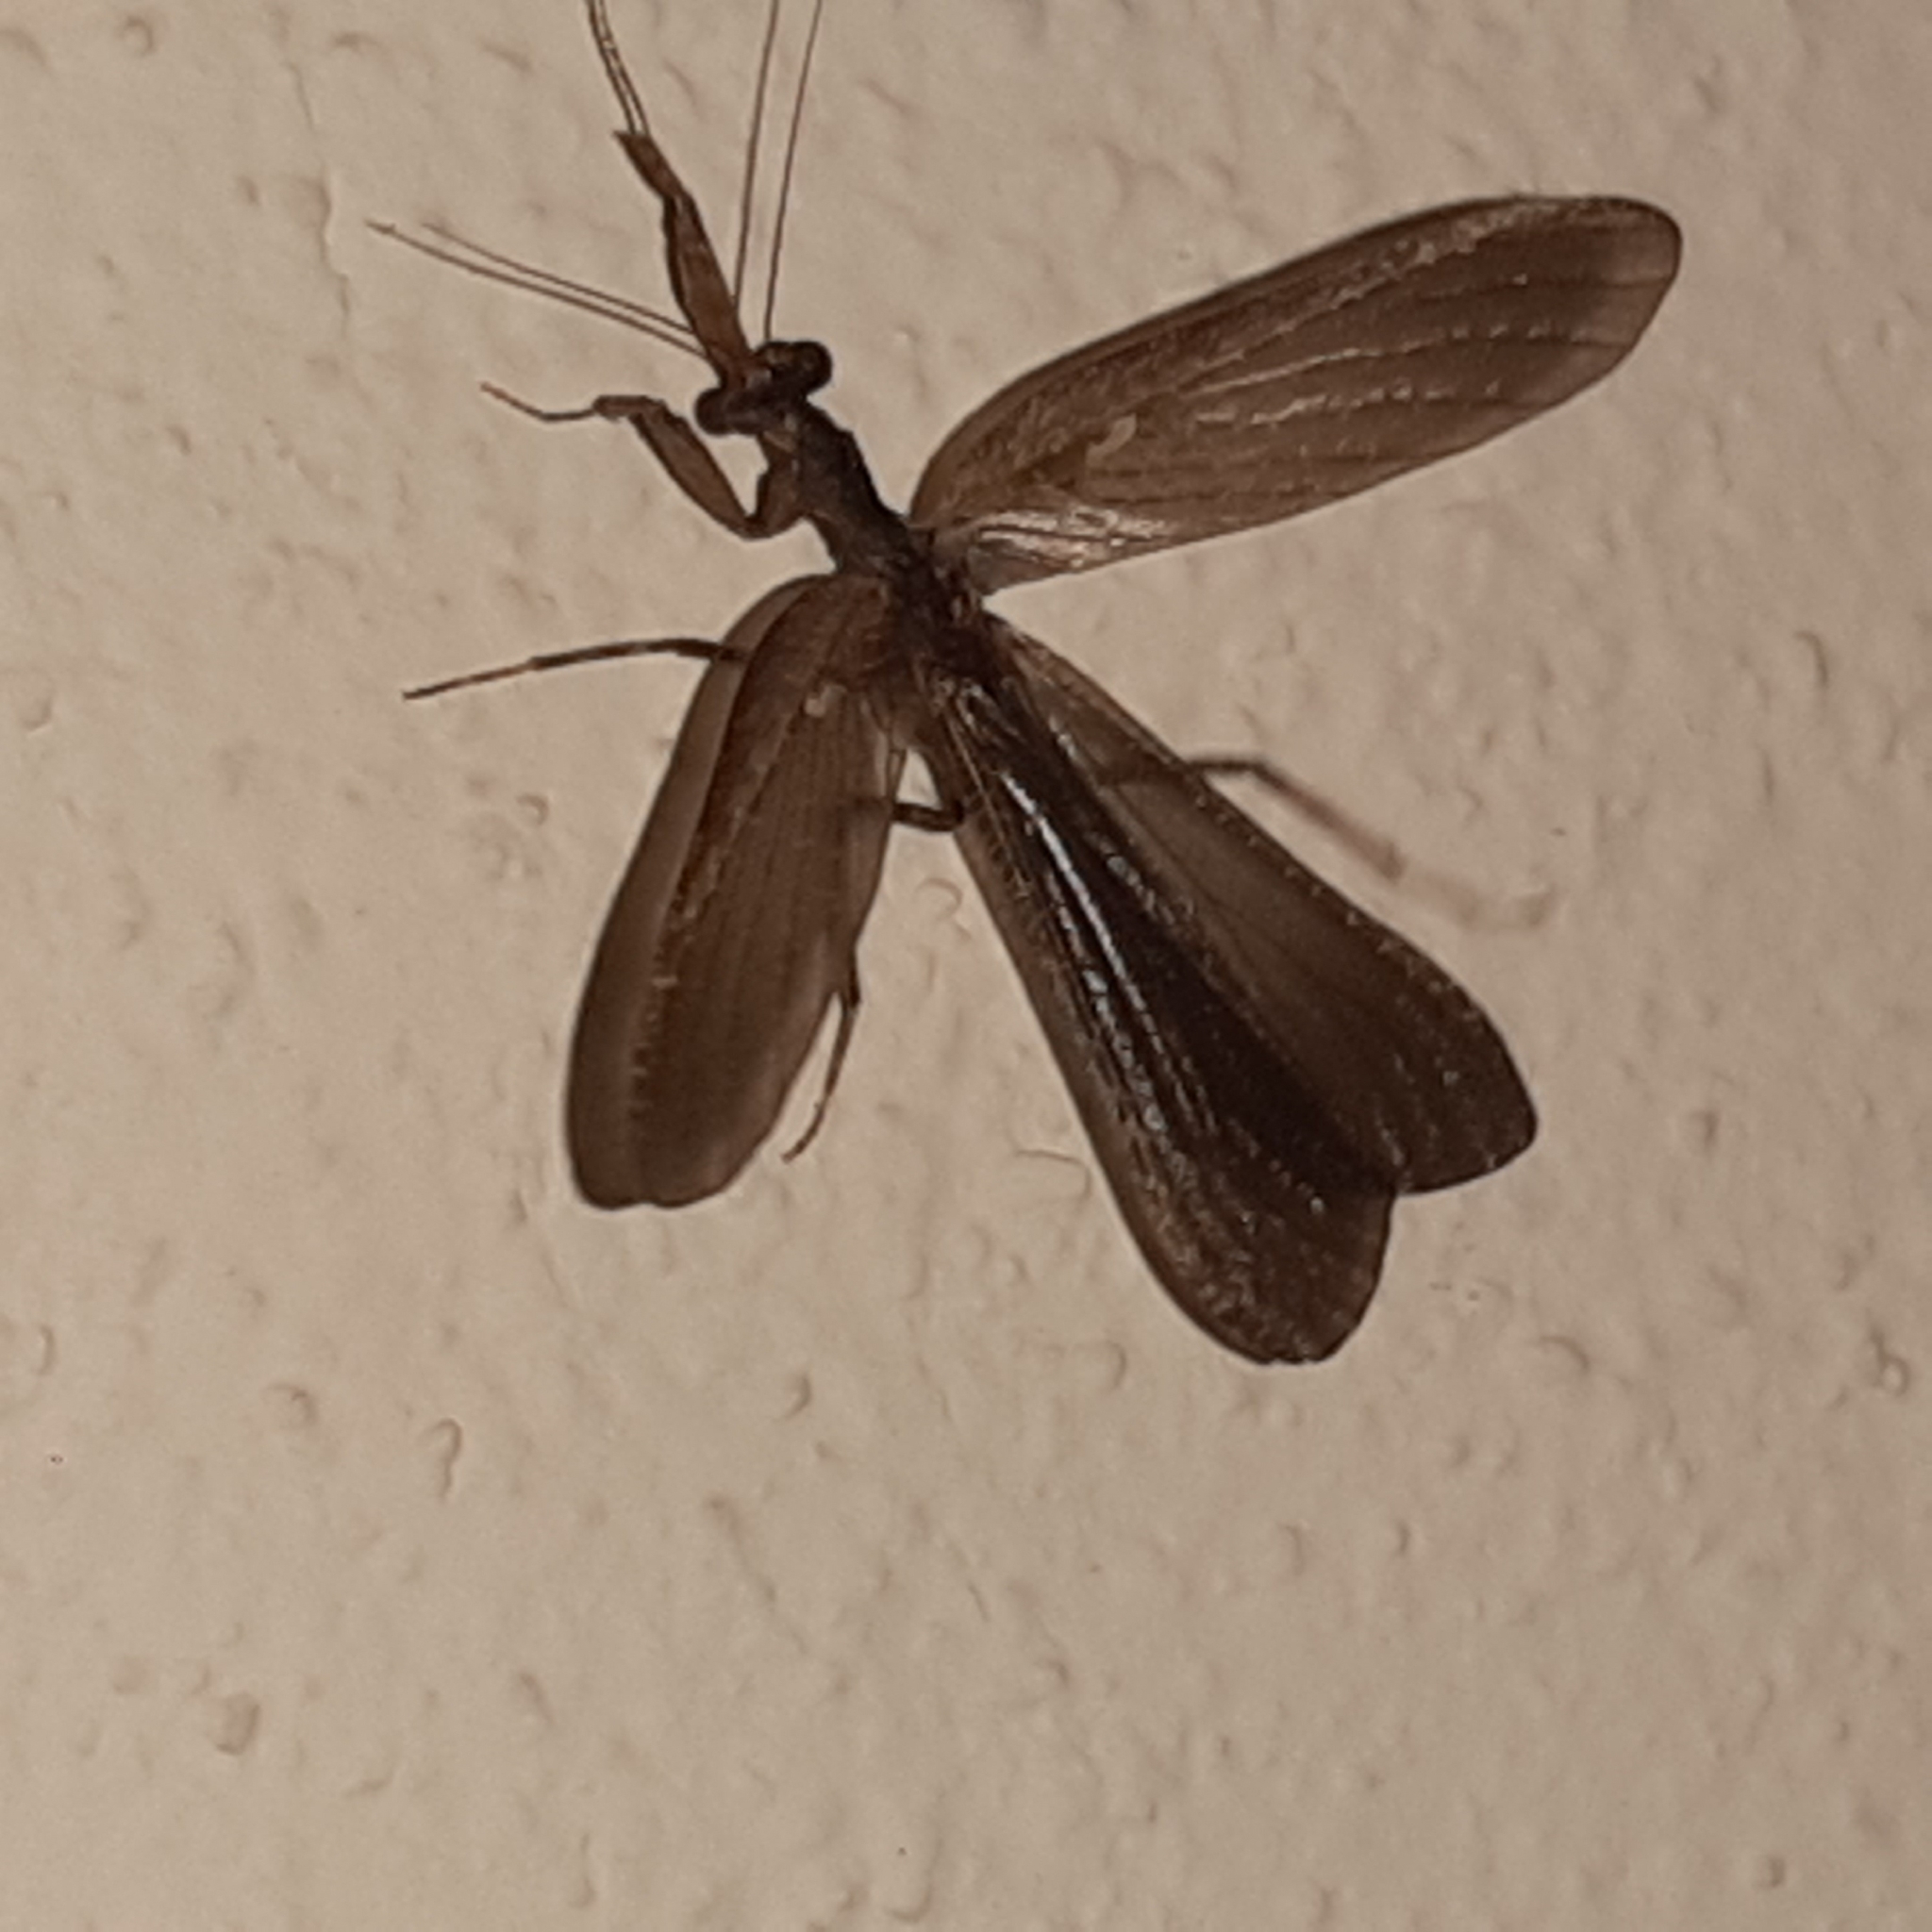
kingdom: Animalia
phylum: Arthropoda
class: Insecta
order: Mantodea
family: Thespidae
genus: Pseudomiopteryx
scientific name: Pseudomiopteryx infuscata
